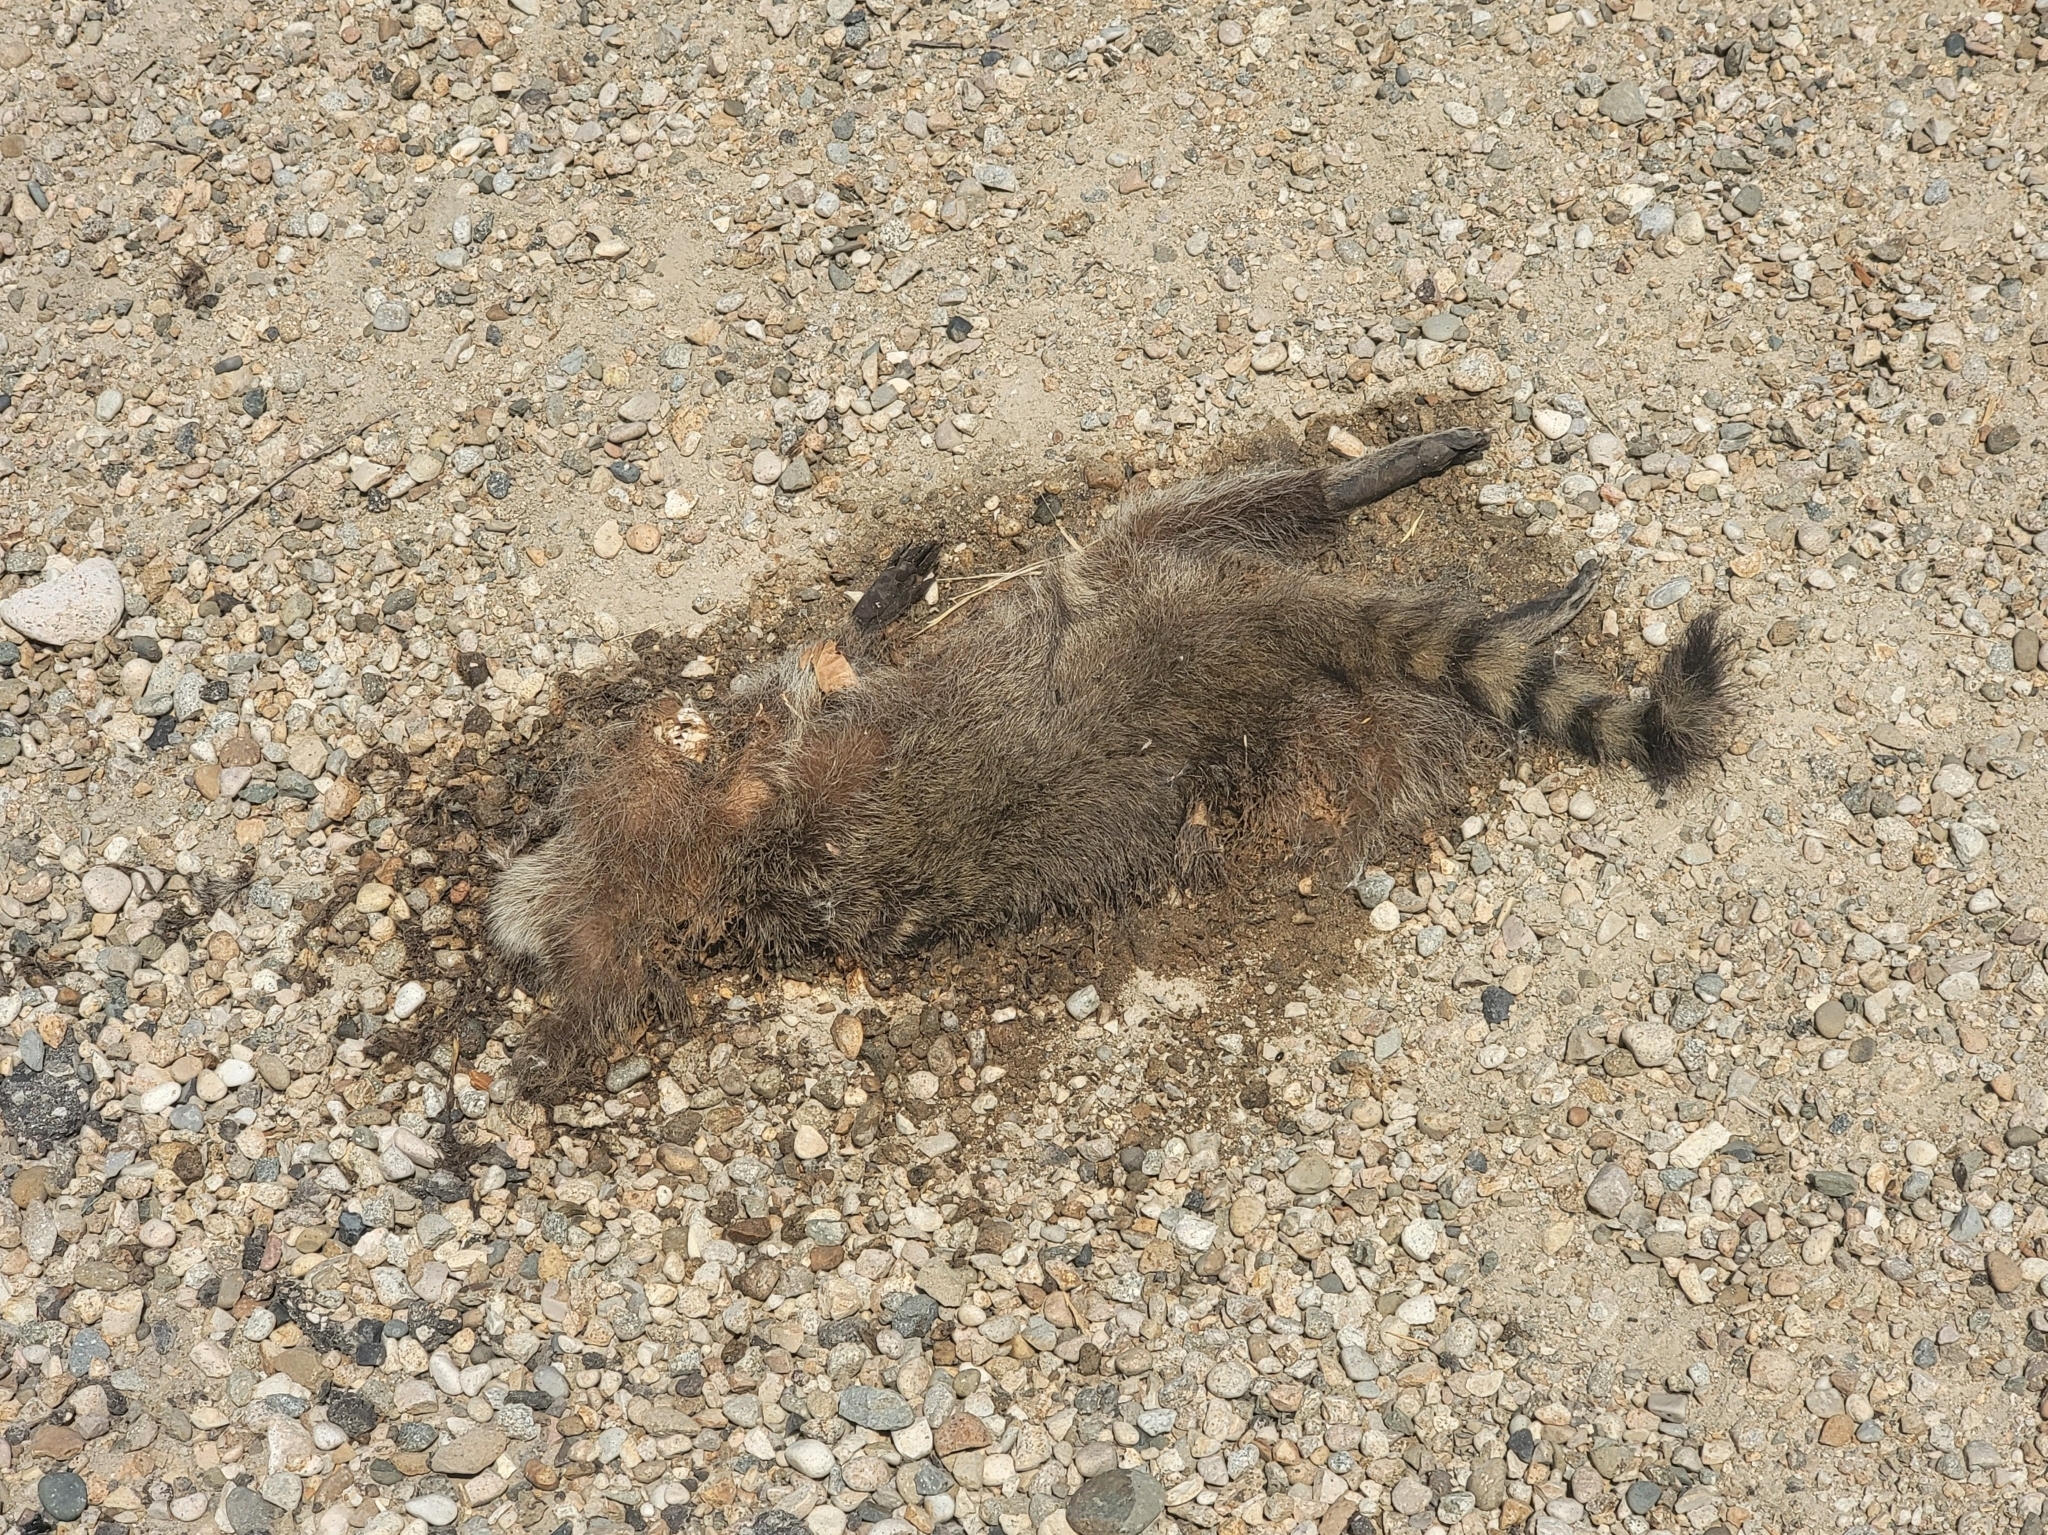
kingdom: Animalia
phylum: Chordata
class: Mammalia
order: Carnivora
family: Procyonidae
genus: Procyon
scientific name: Procyon lotor
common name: Raccoon
